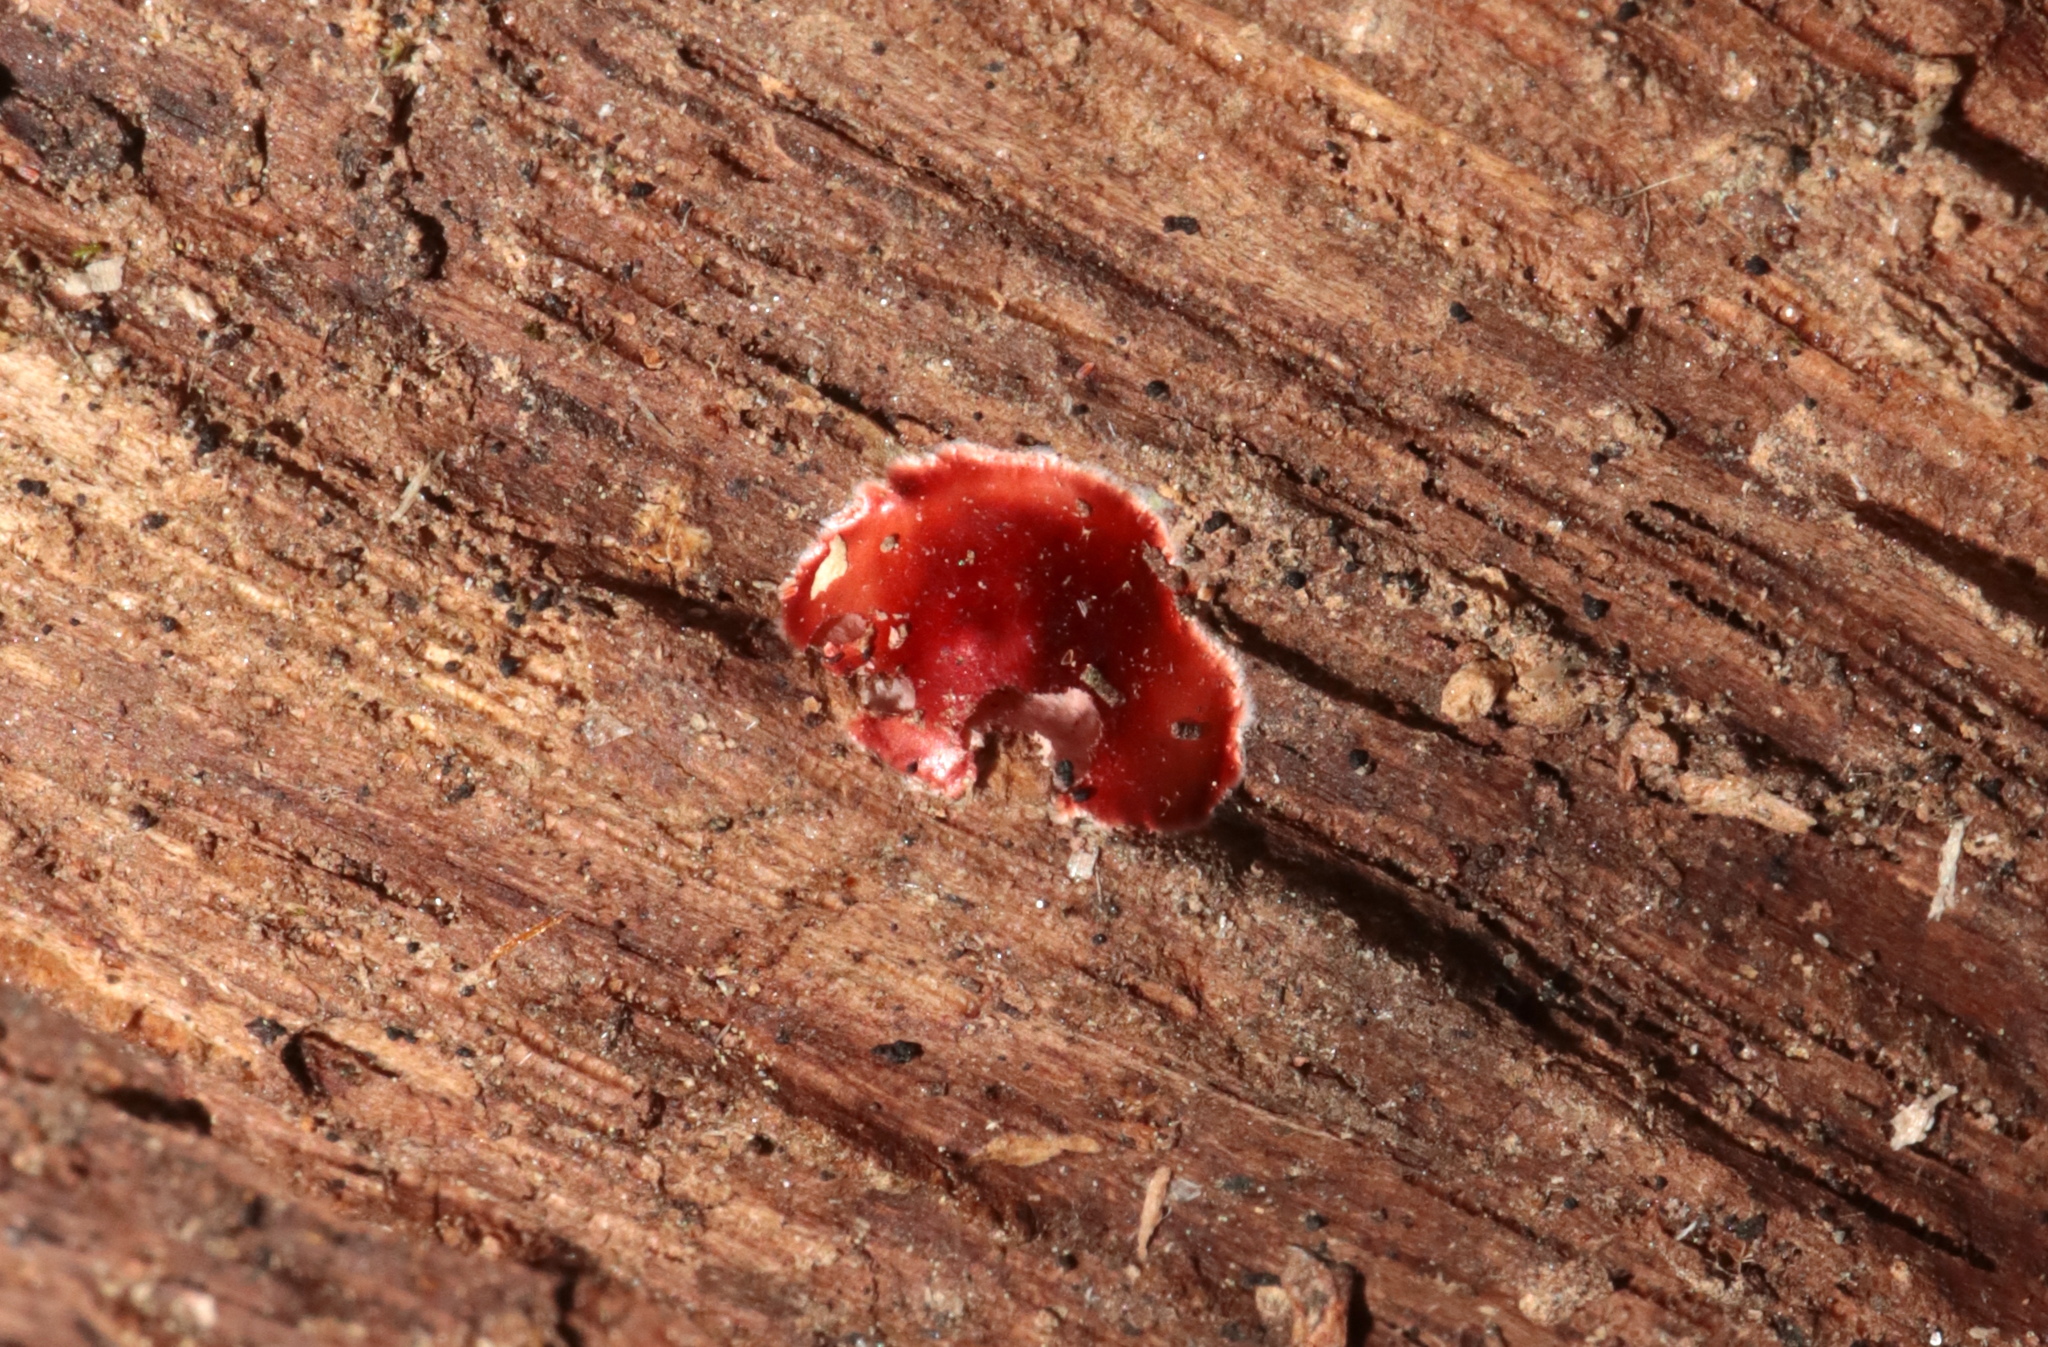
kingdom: Animalia
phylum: Arthropoda
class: Arachnida
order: Araneae
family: Phrurolithidae
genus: Phrurotimpus
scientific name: Phrurotimpus
